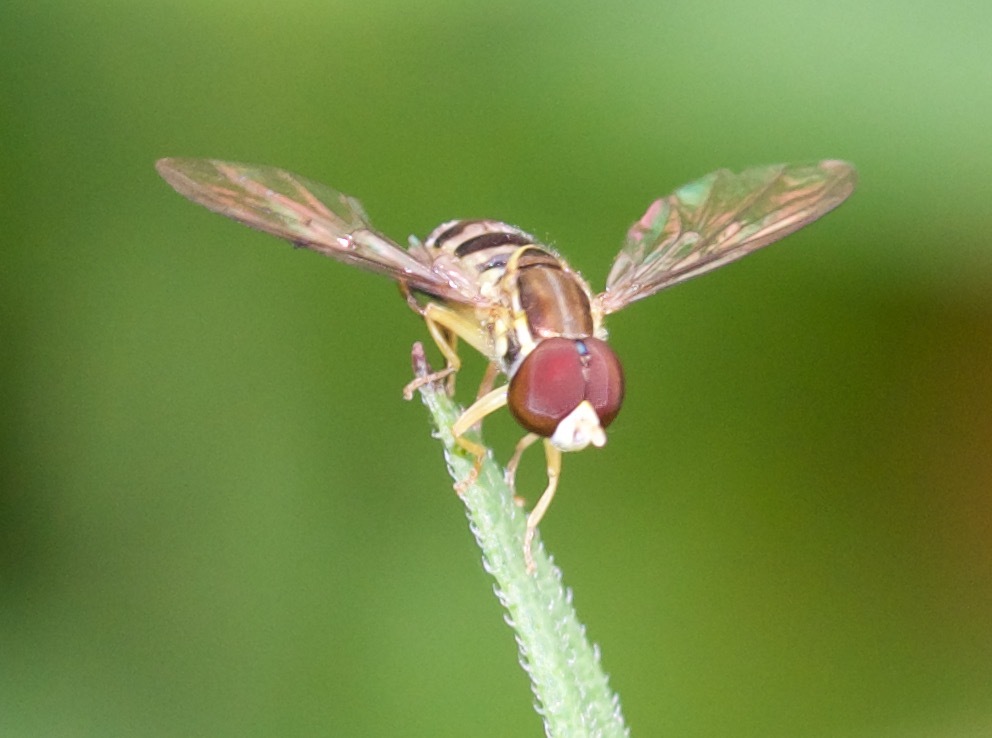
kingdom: Animalia
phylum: Arthropoda
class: Insecta
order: Diptera
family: Syrphidae
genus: Toxomerus
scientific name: Toxomerus geminatus
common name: Eastern calligrapher
